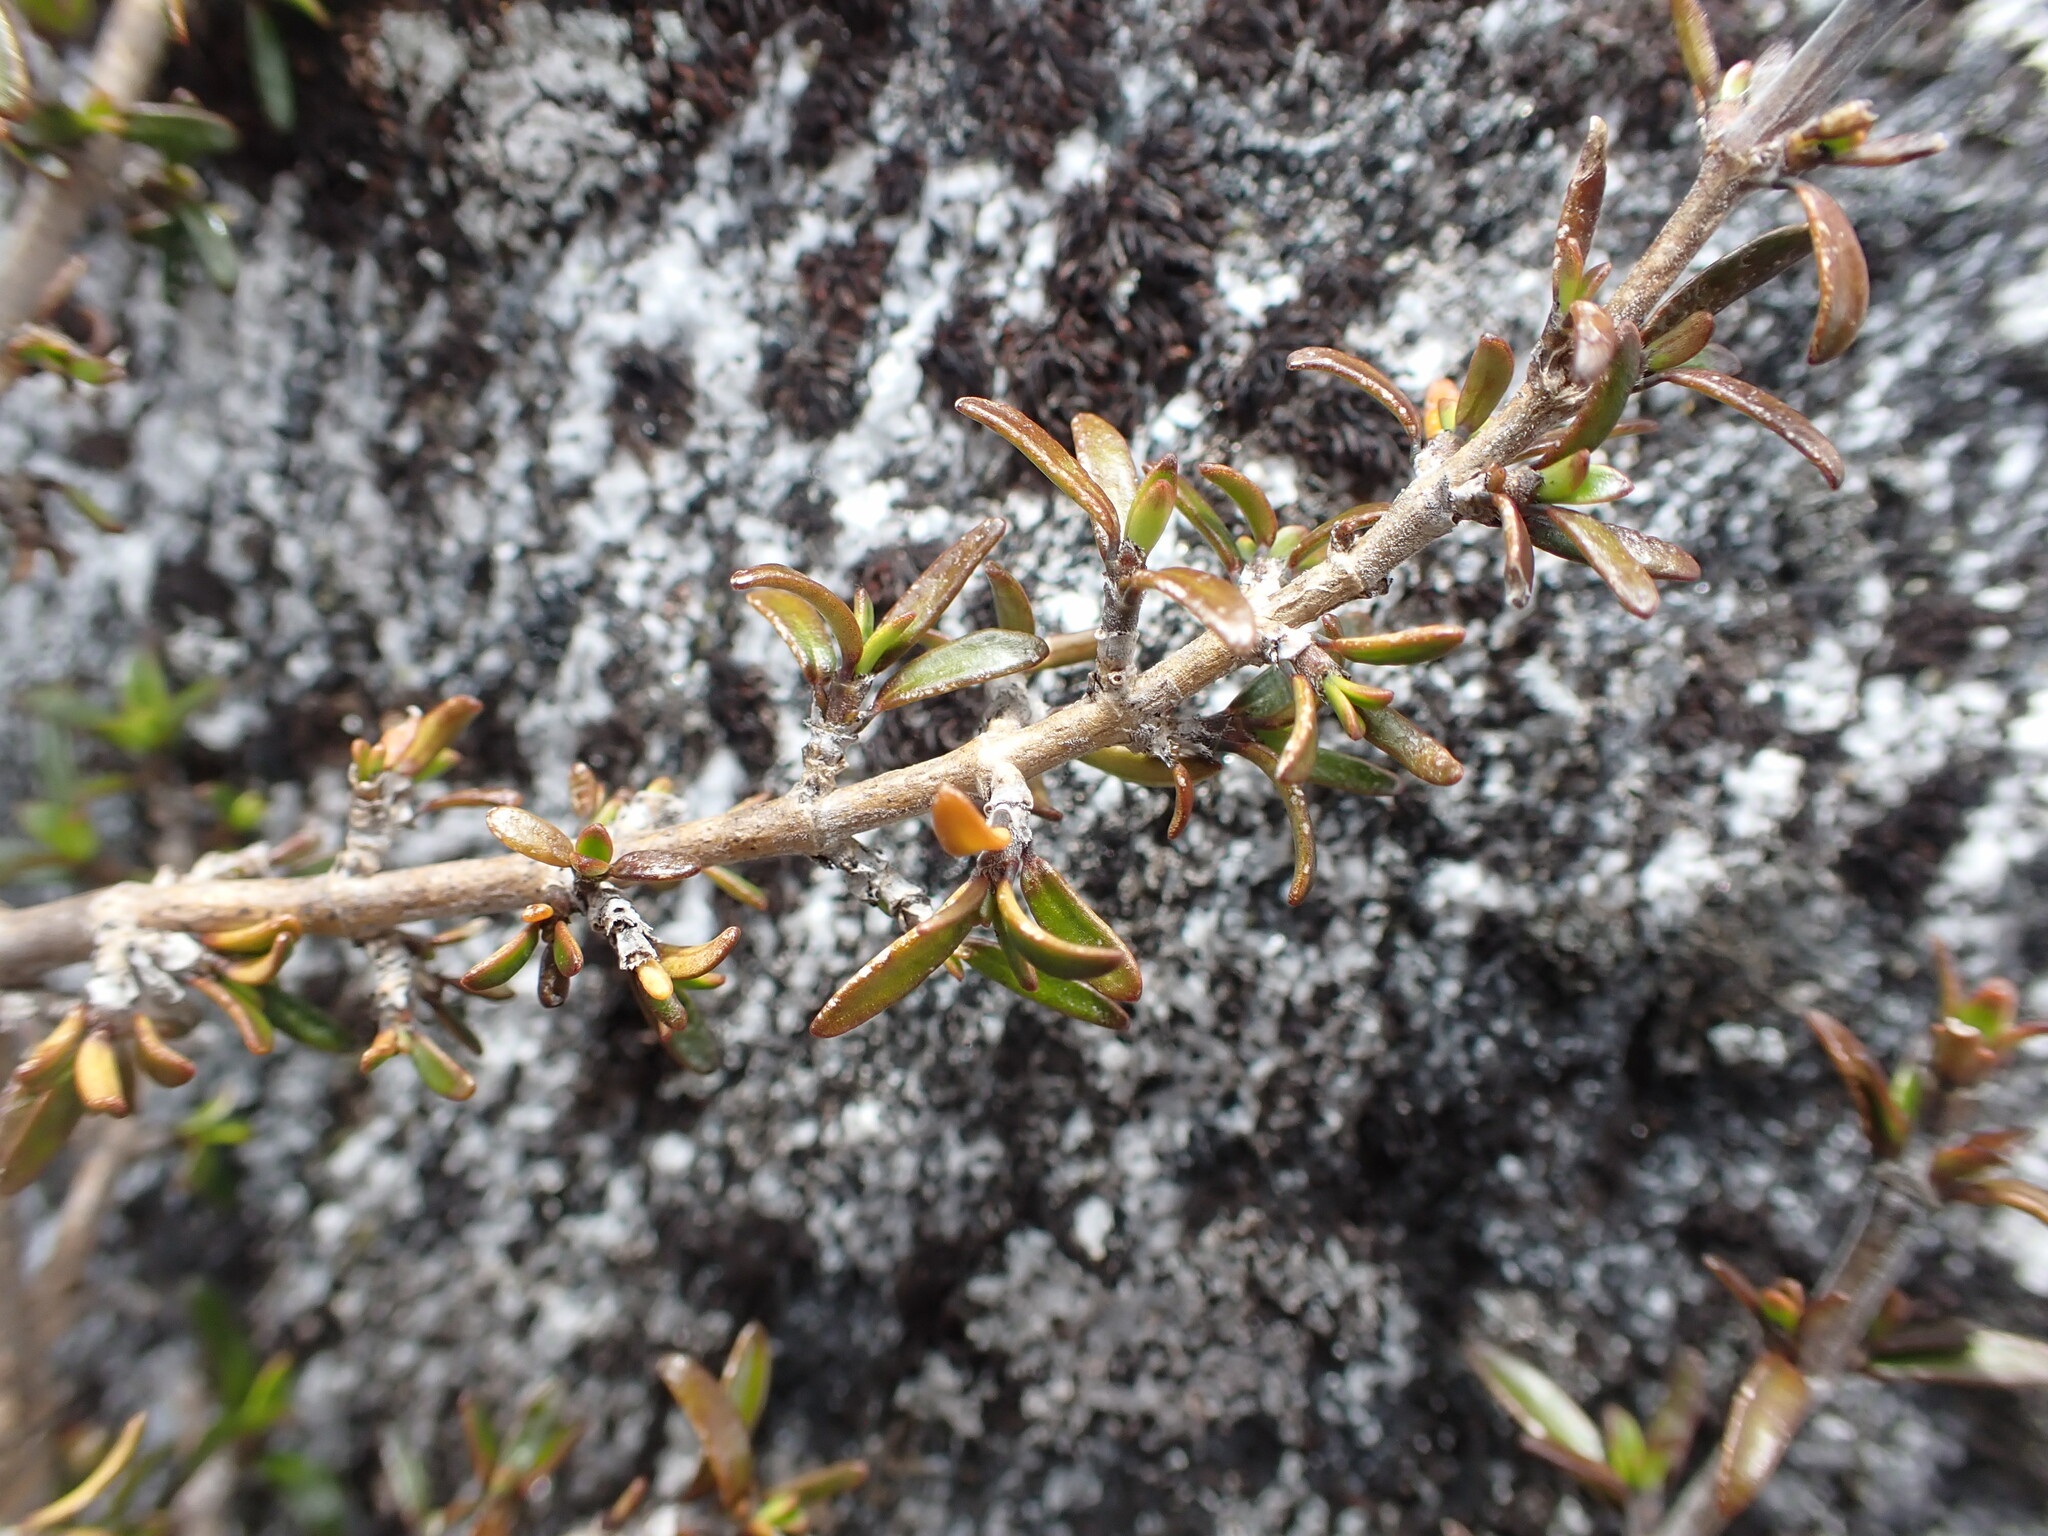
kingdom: Plantae
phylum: Tracheophyta
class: Magnoliopsida
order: Gentianales
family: Rubiaceae
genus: Coprosma
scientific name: Coprosma cheesemanii
